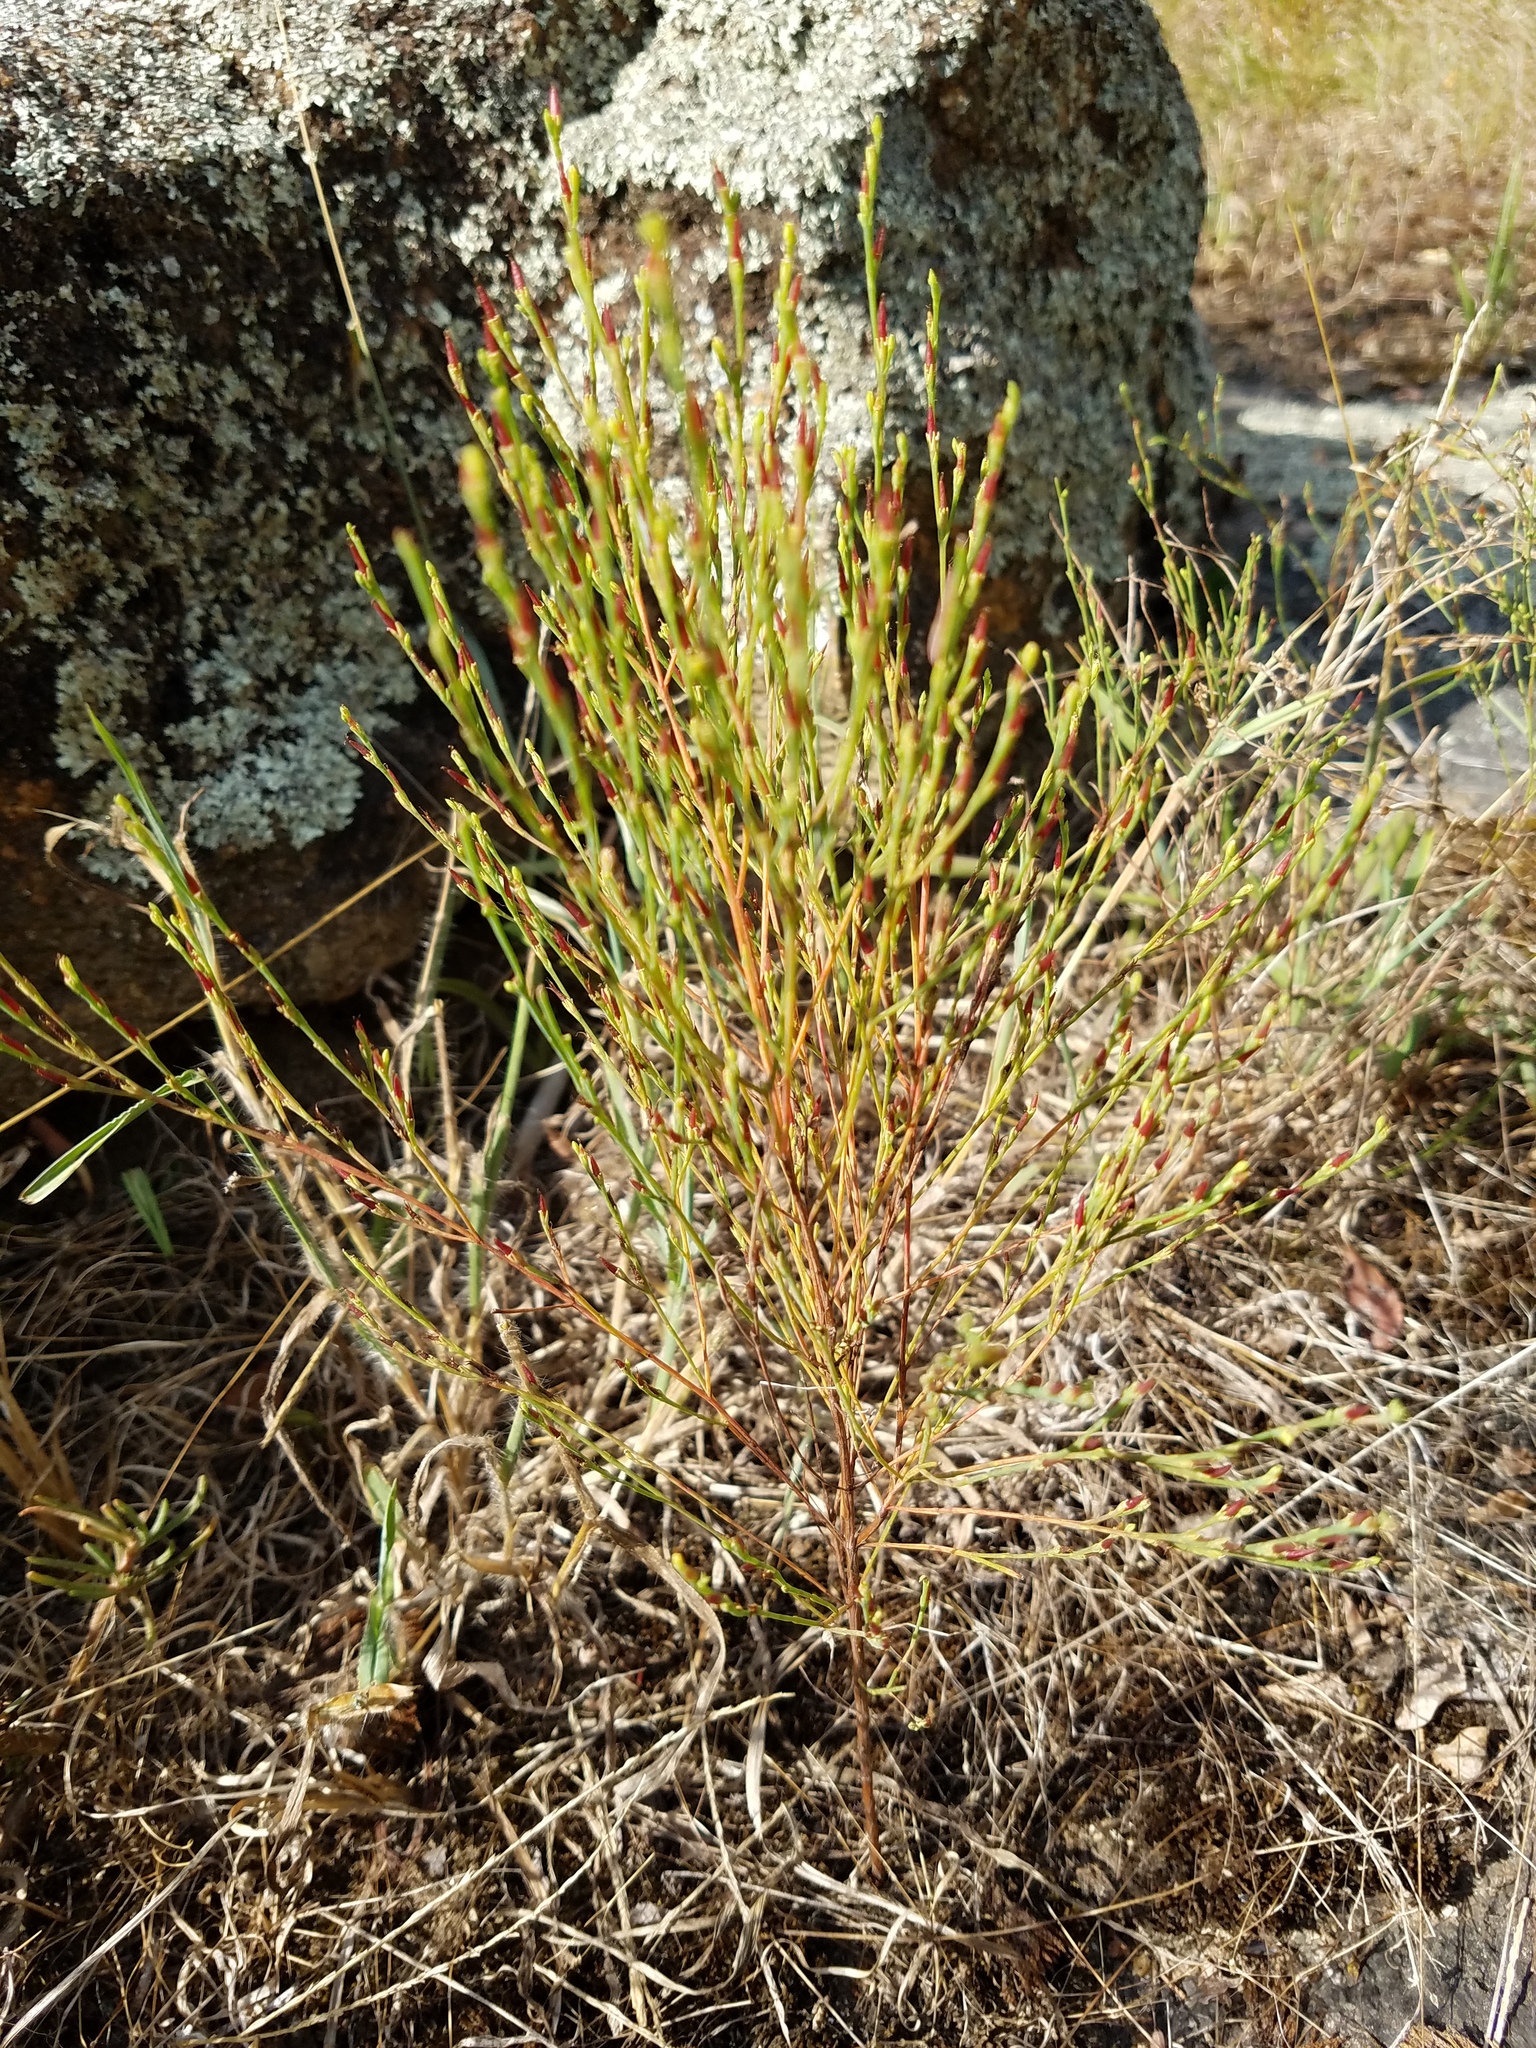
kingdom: Plantae
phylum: Tracheophyta
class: Magnoliopsida
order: Malpighiales
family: Hypericaceae
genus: Hypericum
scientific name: Hypericum gentianoides
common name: Gentian-leaved st. john's-wort
